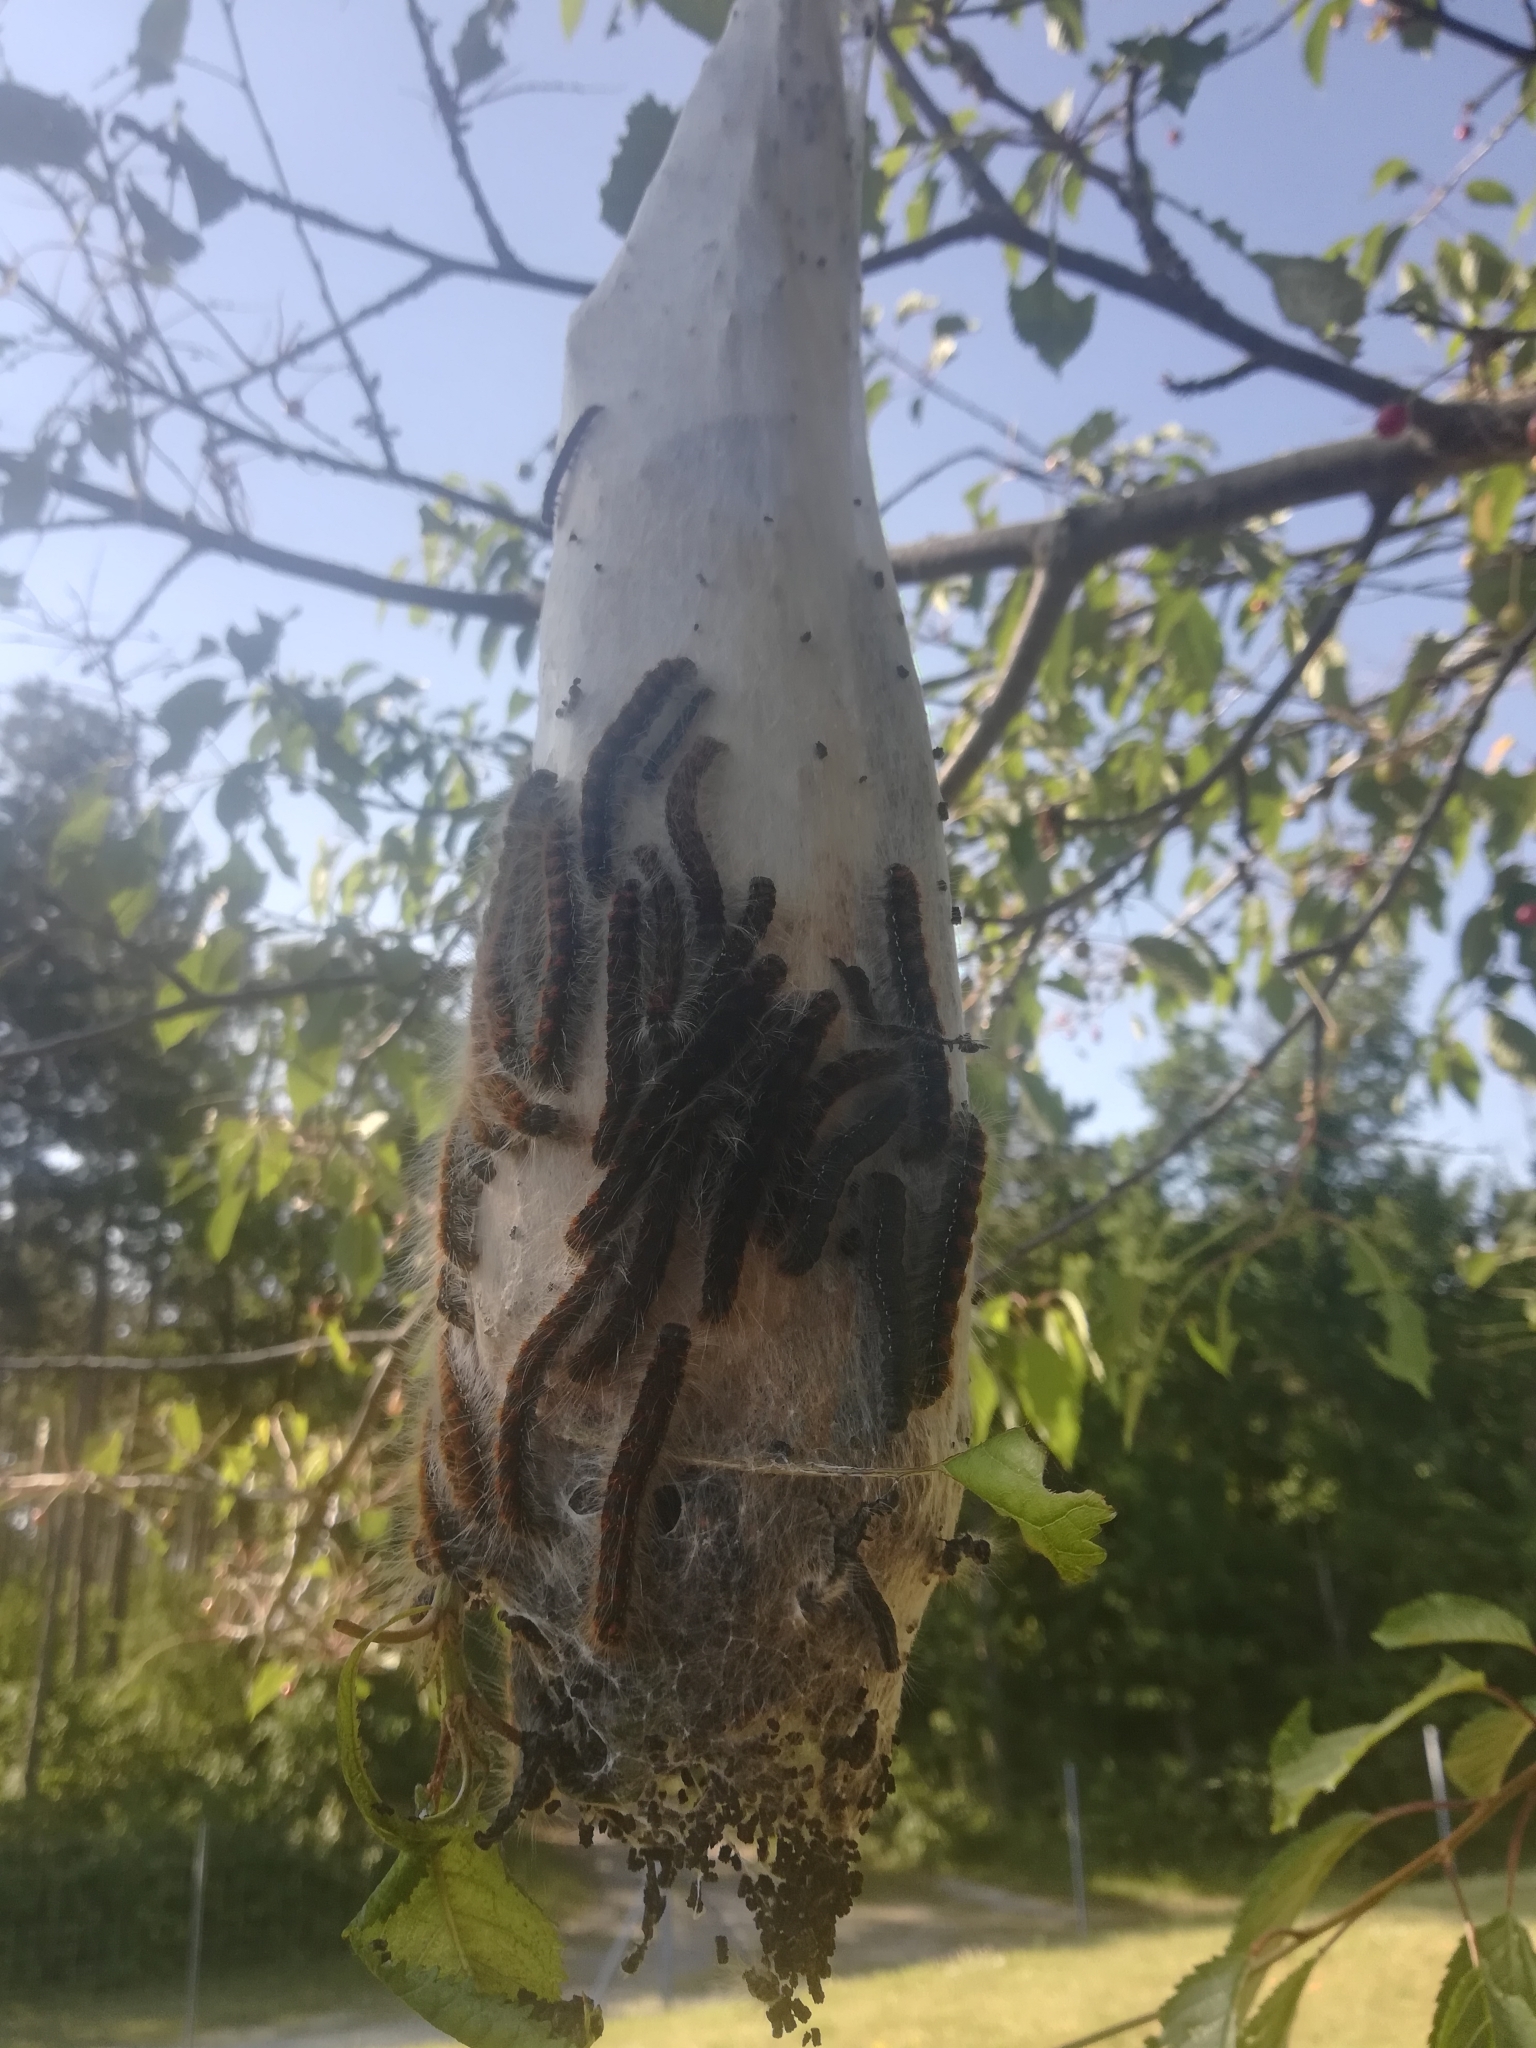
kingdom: Animalia
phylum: Arthropoda
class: Insecta
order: Lepidoptera
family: Lasiocampidae
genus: Eriogaster
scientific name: Eriogaster lanestris
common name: Small eggar
